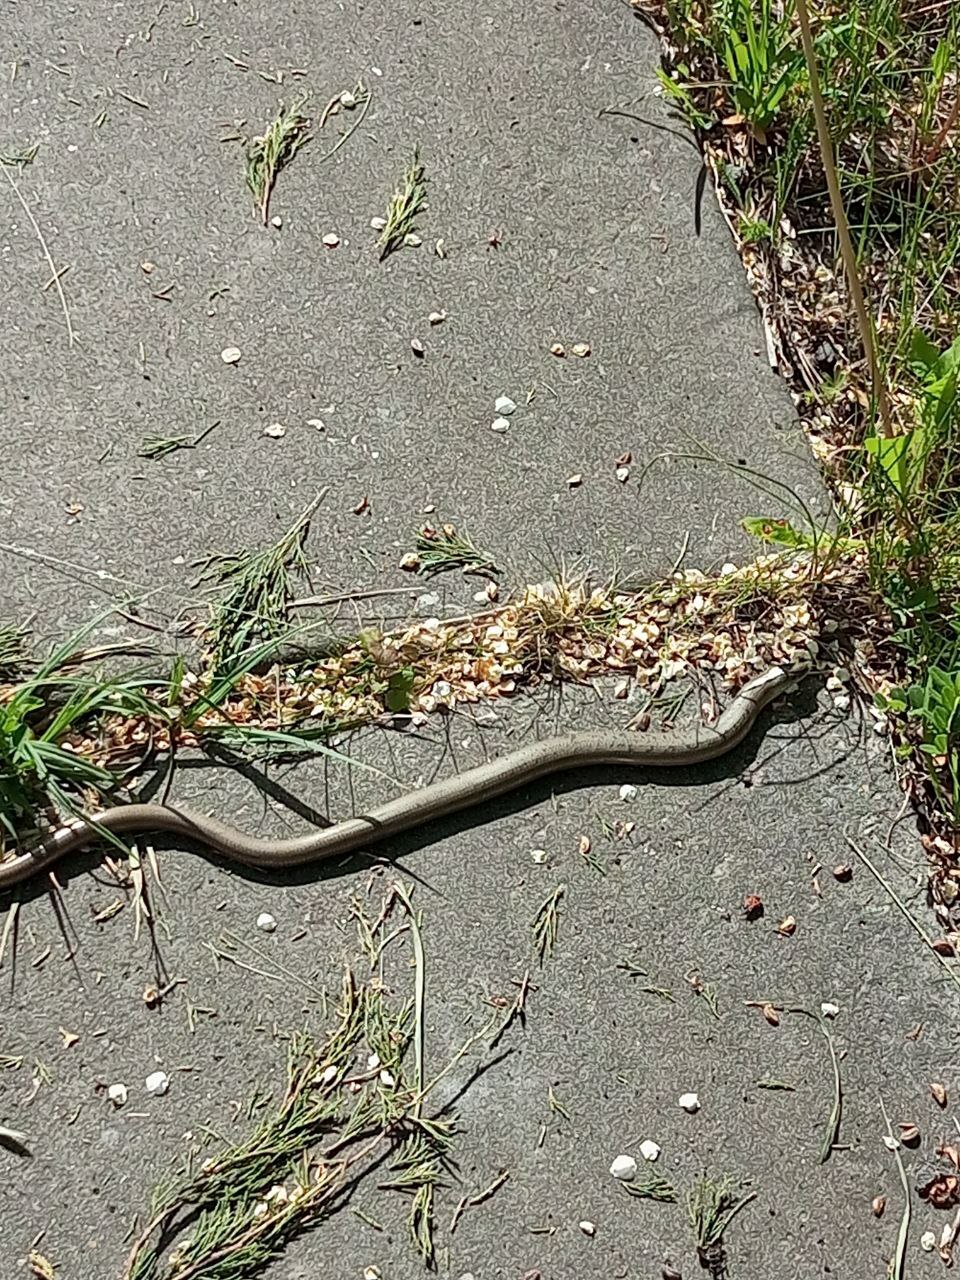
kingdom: Animalia
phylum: Chordata
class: Squamata
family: Anguidae
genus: Anguis
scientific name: Anguis colchica
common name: Slow worm
